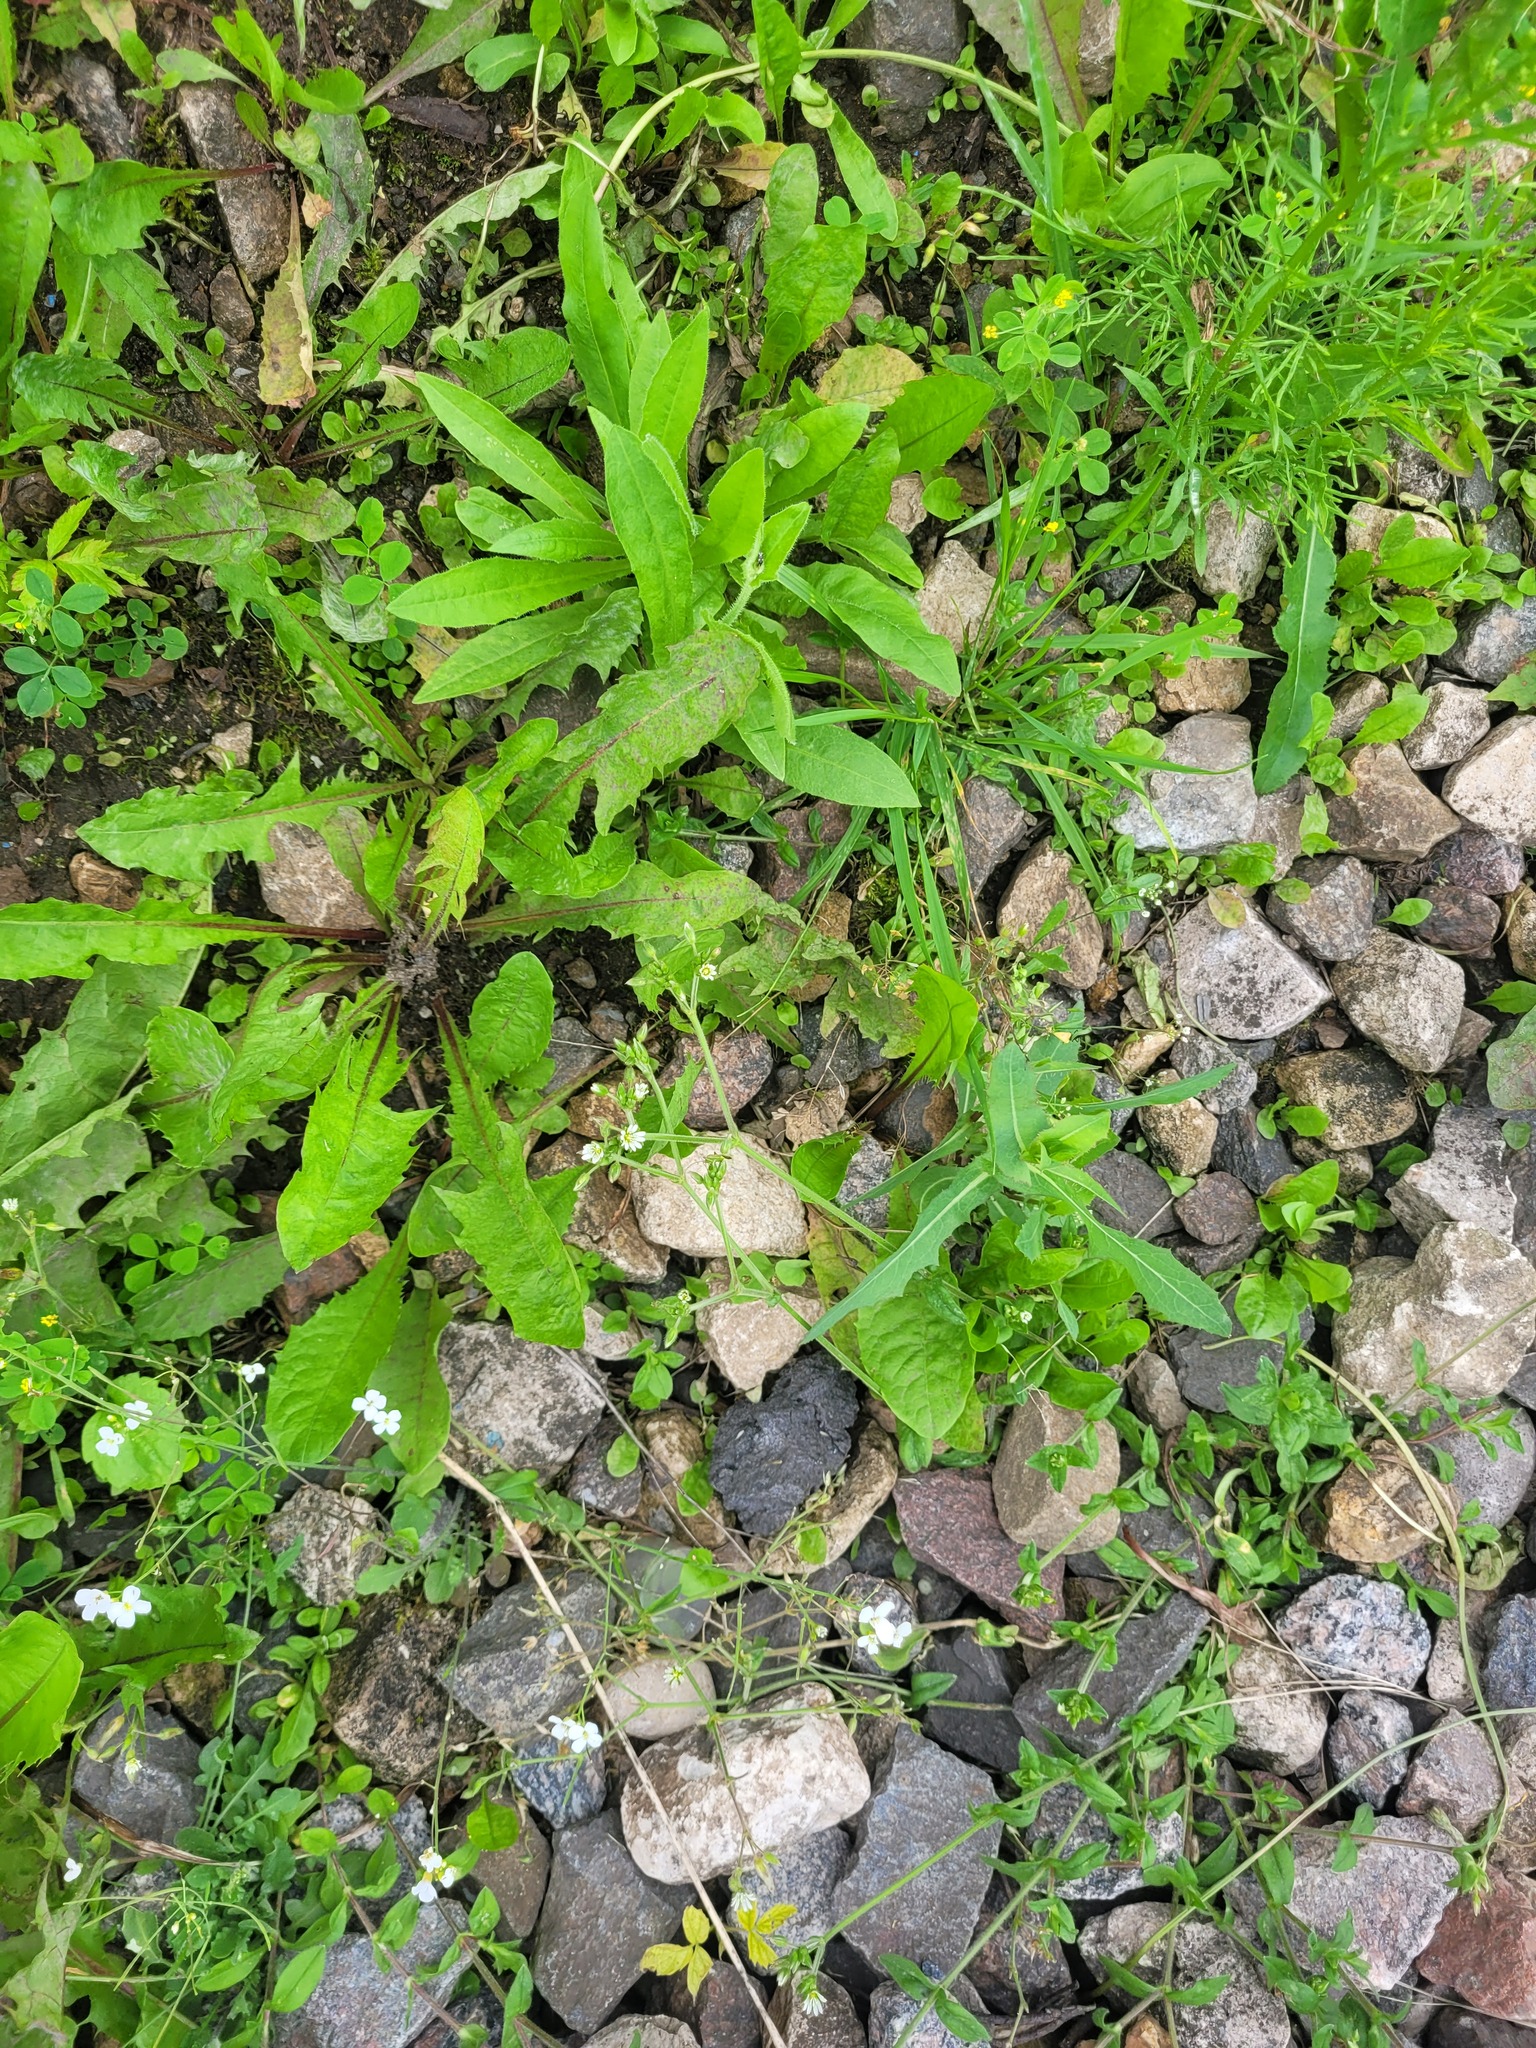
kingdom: Plantae
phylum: Tracheophyta
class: Magnoliopsida
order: Caryophyllales
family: Caryophyllaceae
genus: Cerastium
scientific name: Cerastium holosteoides
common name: Big chickweed
